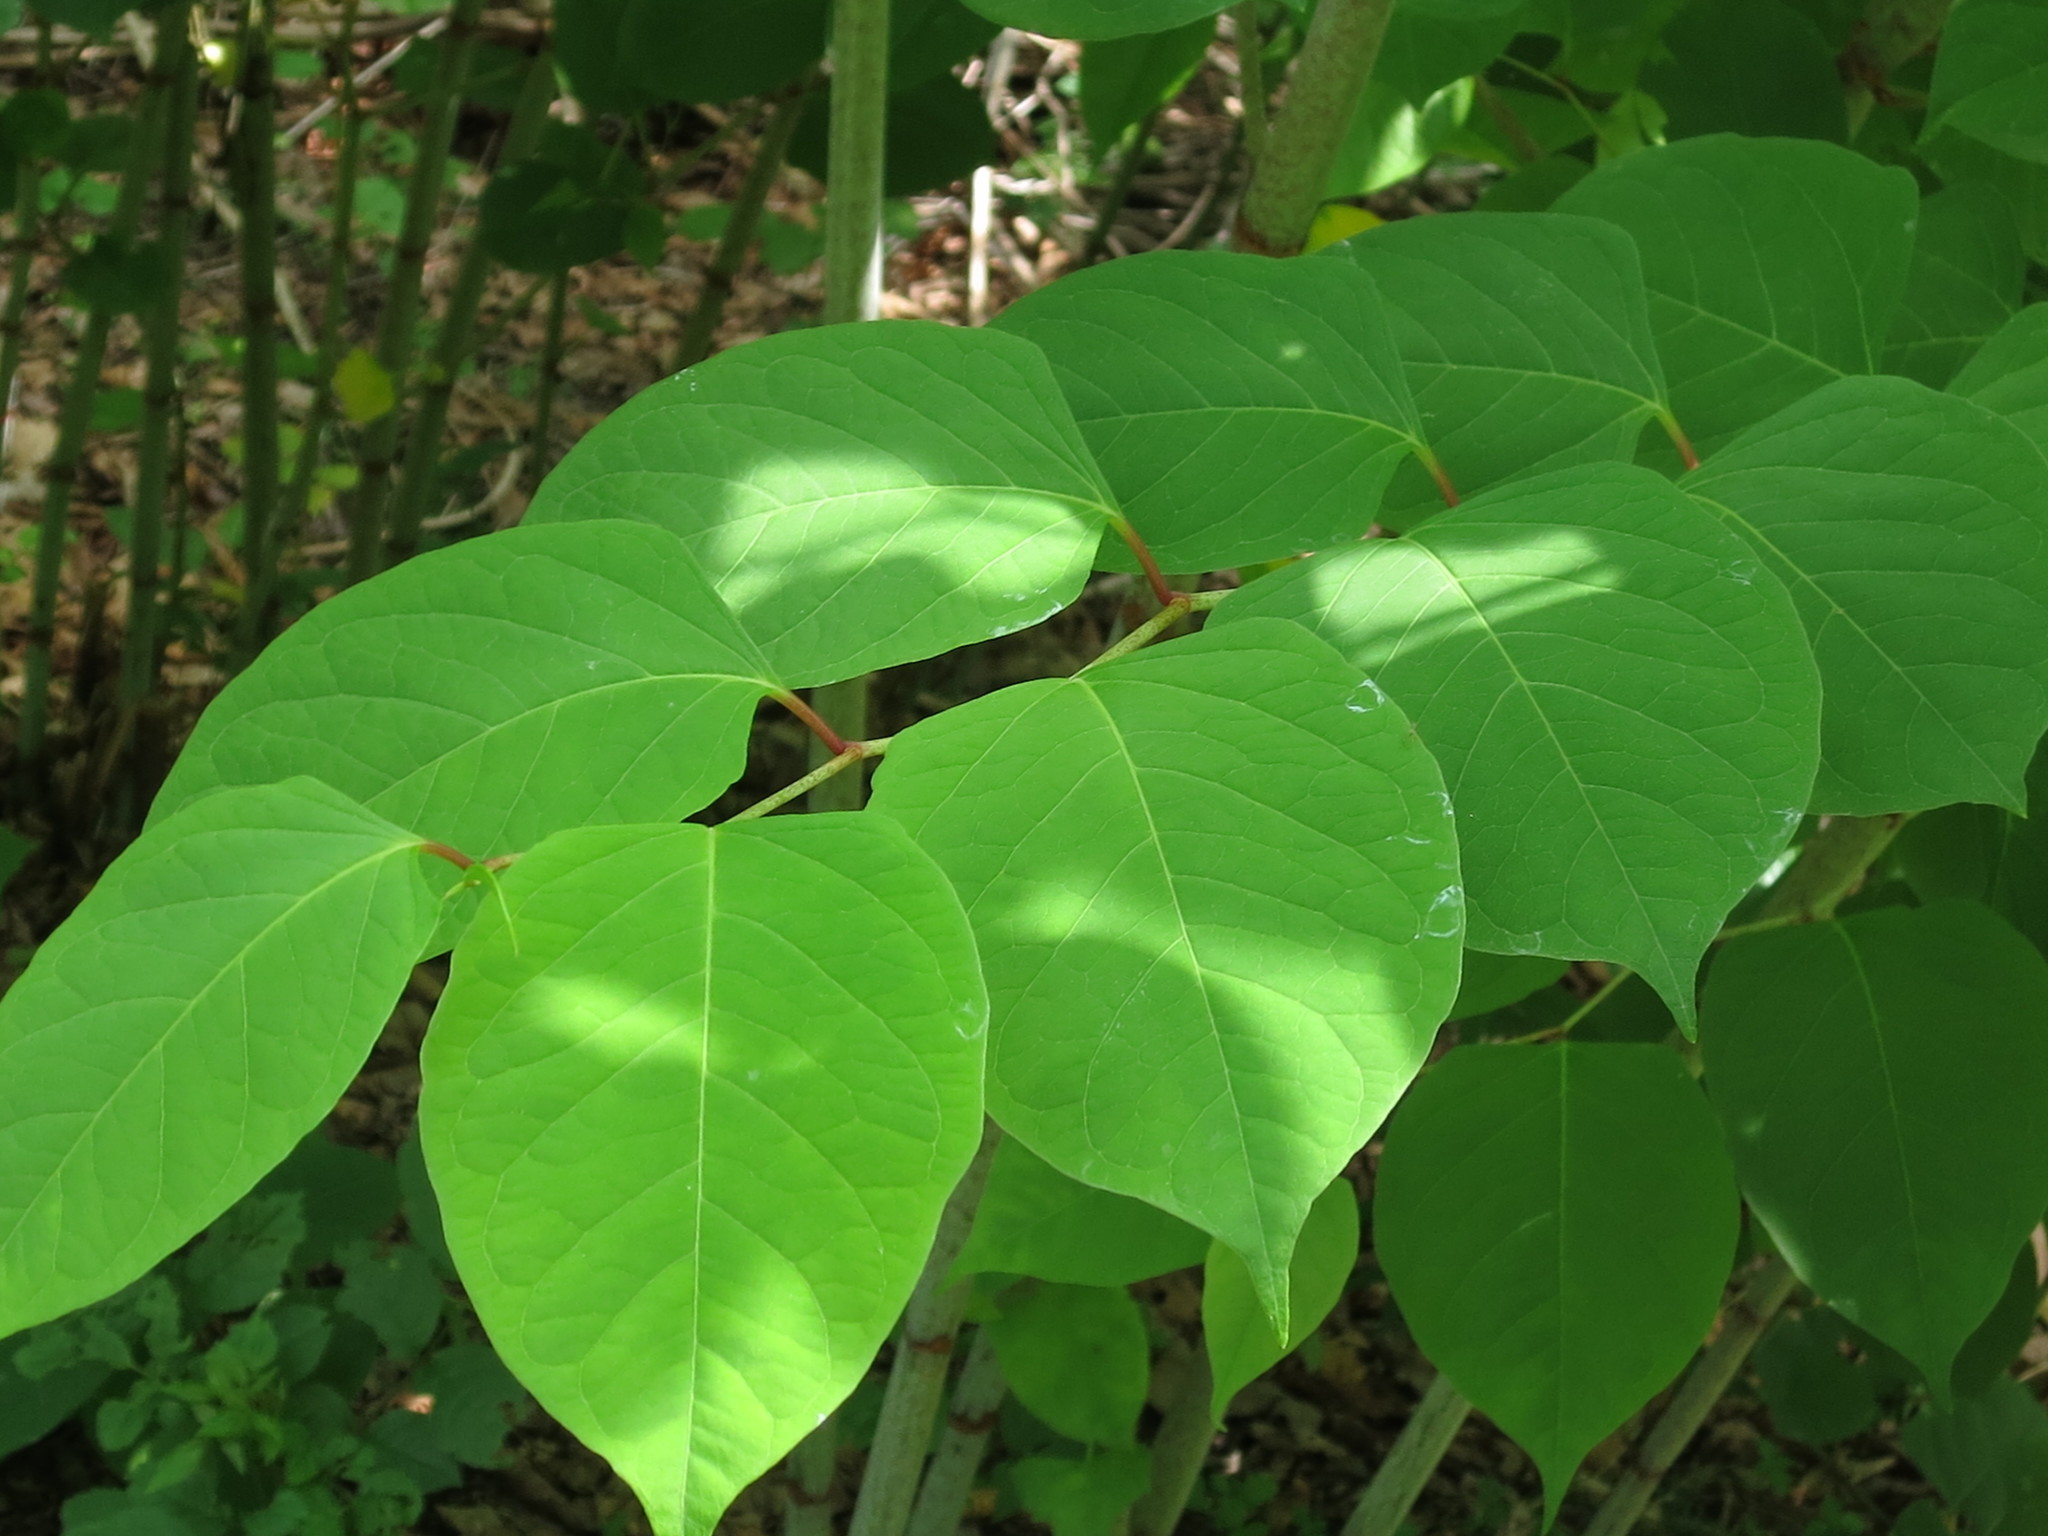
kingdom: Plantae
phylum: Tracheophyta
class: Magnoliopsida
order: Caryophyllales
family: Polygonaceae
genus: Reynoutria
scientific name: Reynoutria japonica
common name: Japanese knotweed
